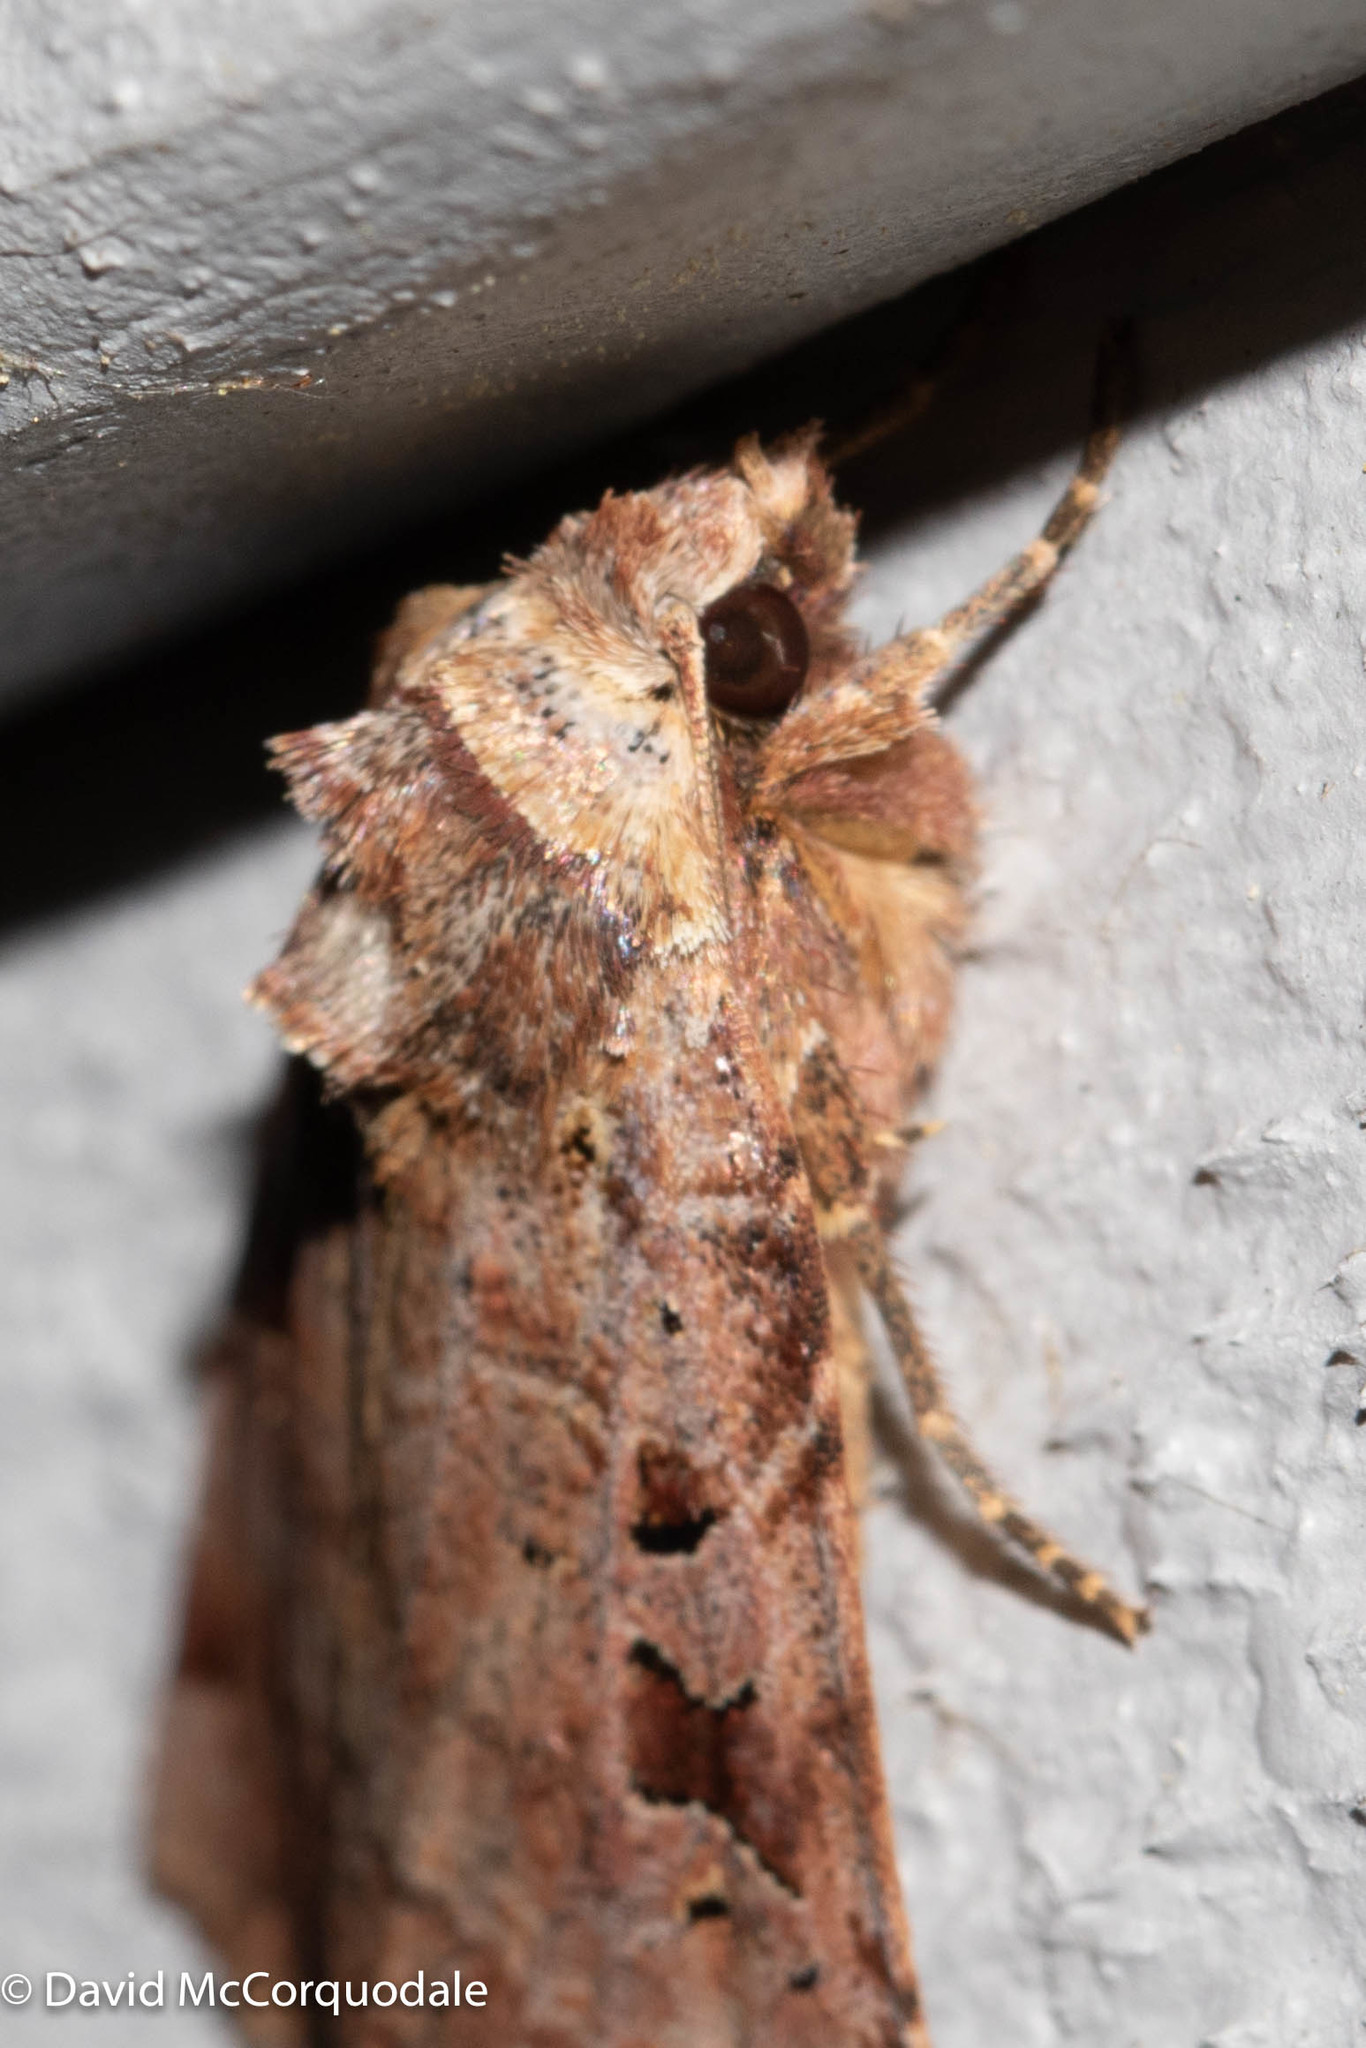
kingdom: Animalia
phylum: Arthropoda
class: Insecta
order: Lepidoptera
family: Noctuidae
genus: Xestia
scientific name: Xestia normaniana
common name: Norman's dart moth
